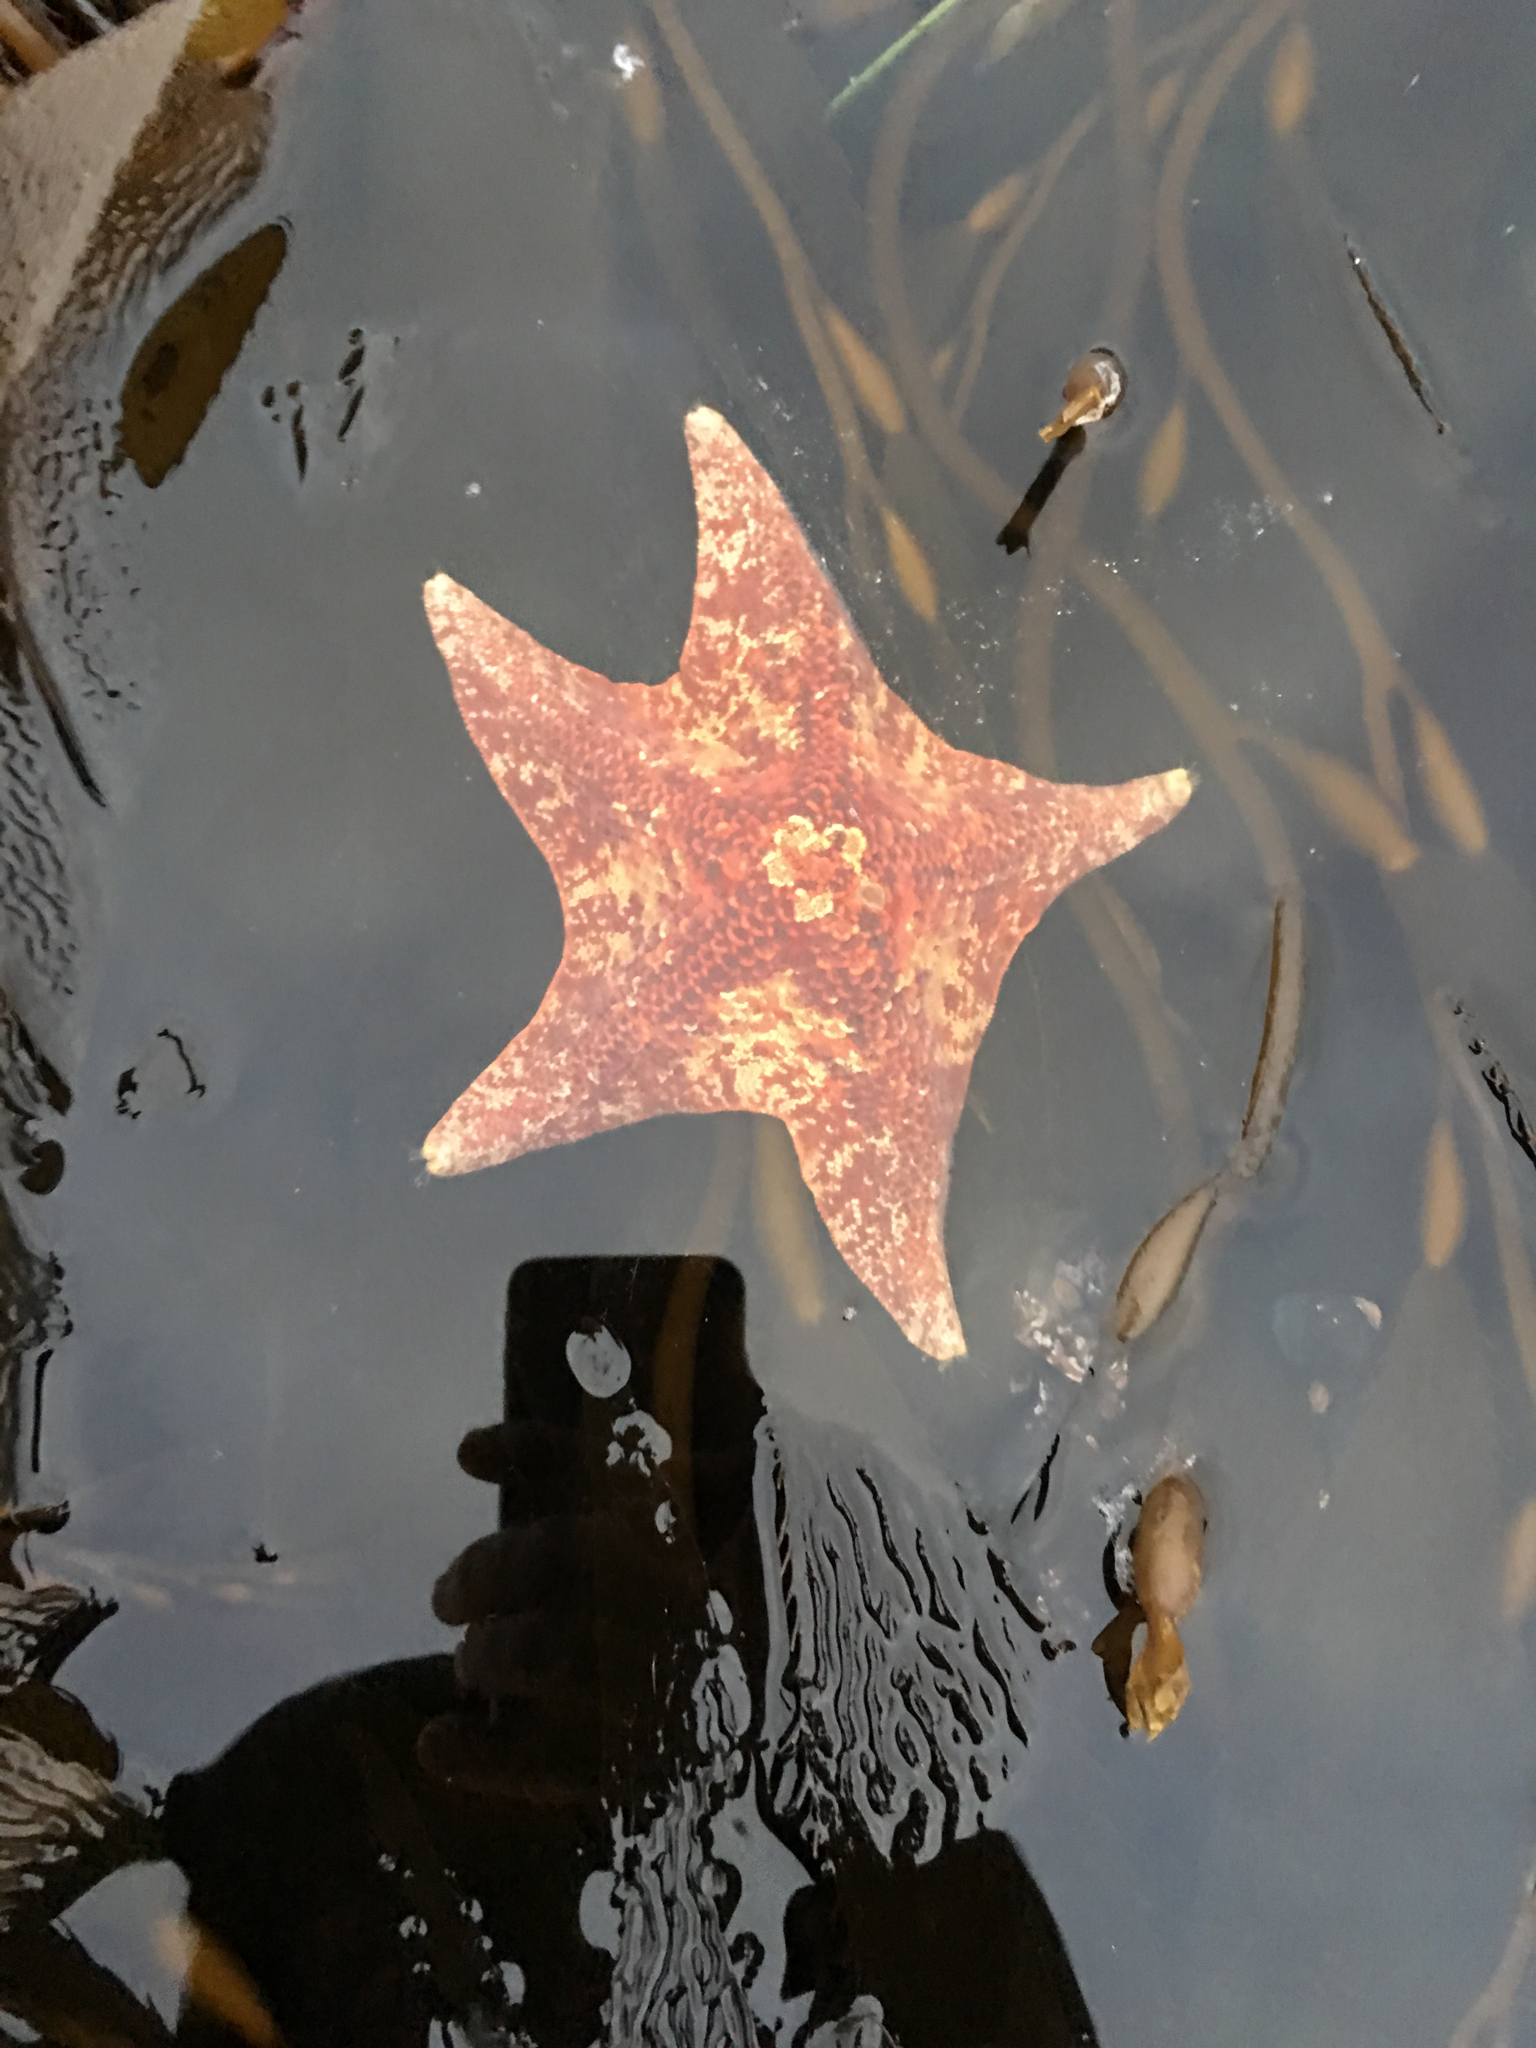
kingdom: Animalia
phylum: Echinodermata
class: Asteroidea
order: Valvatida
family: Asterinidae
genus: Patiria
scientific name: Patiria miniata
